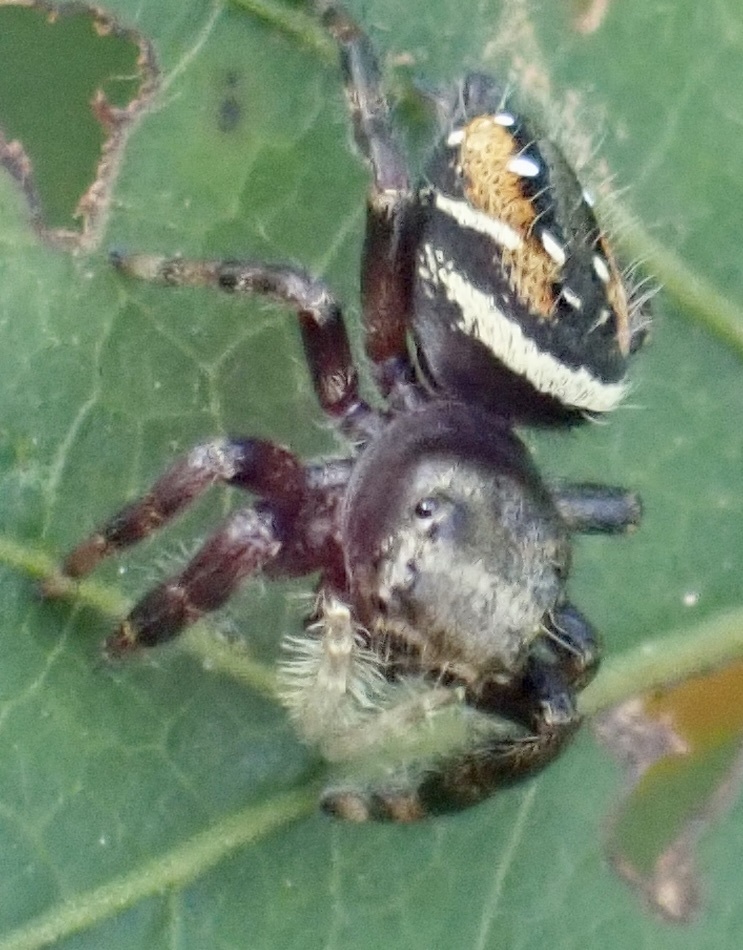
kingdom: Animalia
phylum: Arthropoda
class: Arachnida
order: Araneae
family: Salticidae
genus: Phidippus
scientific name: Phidippus clarus
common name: Brilliant jumping spider
